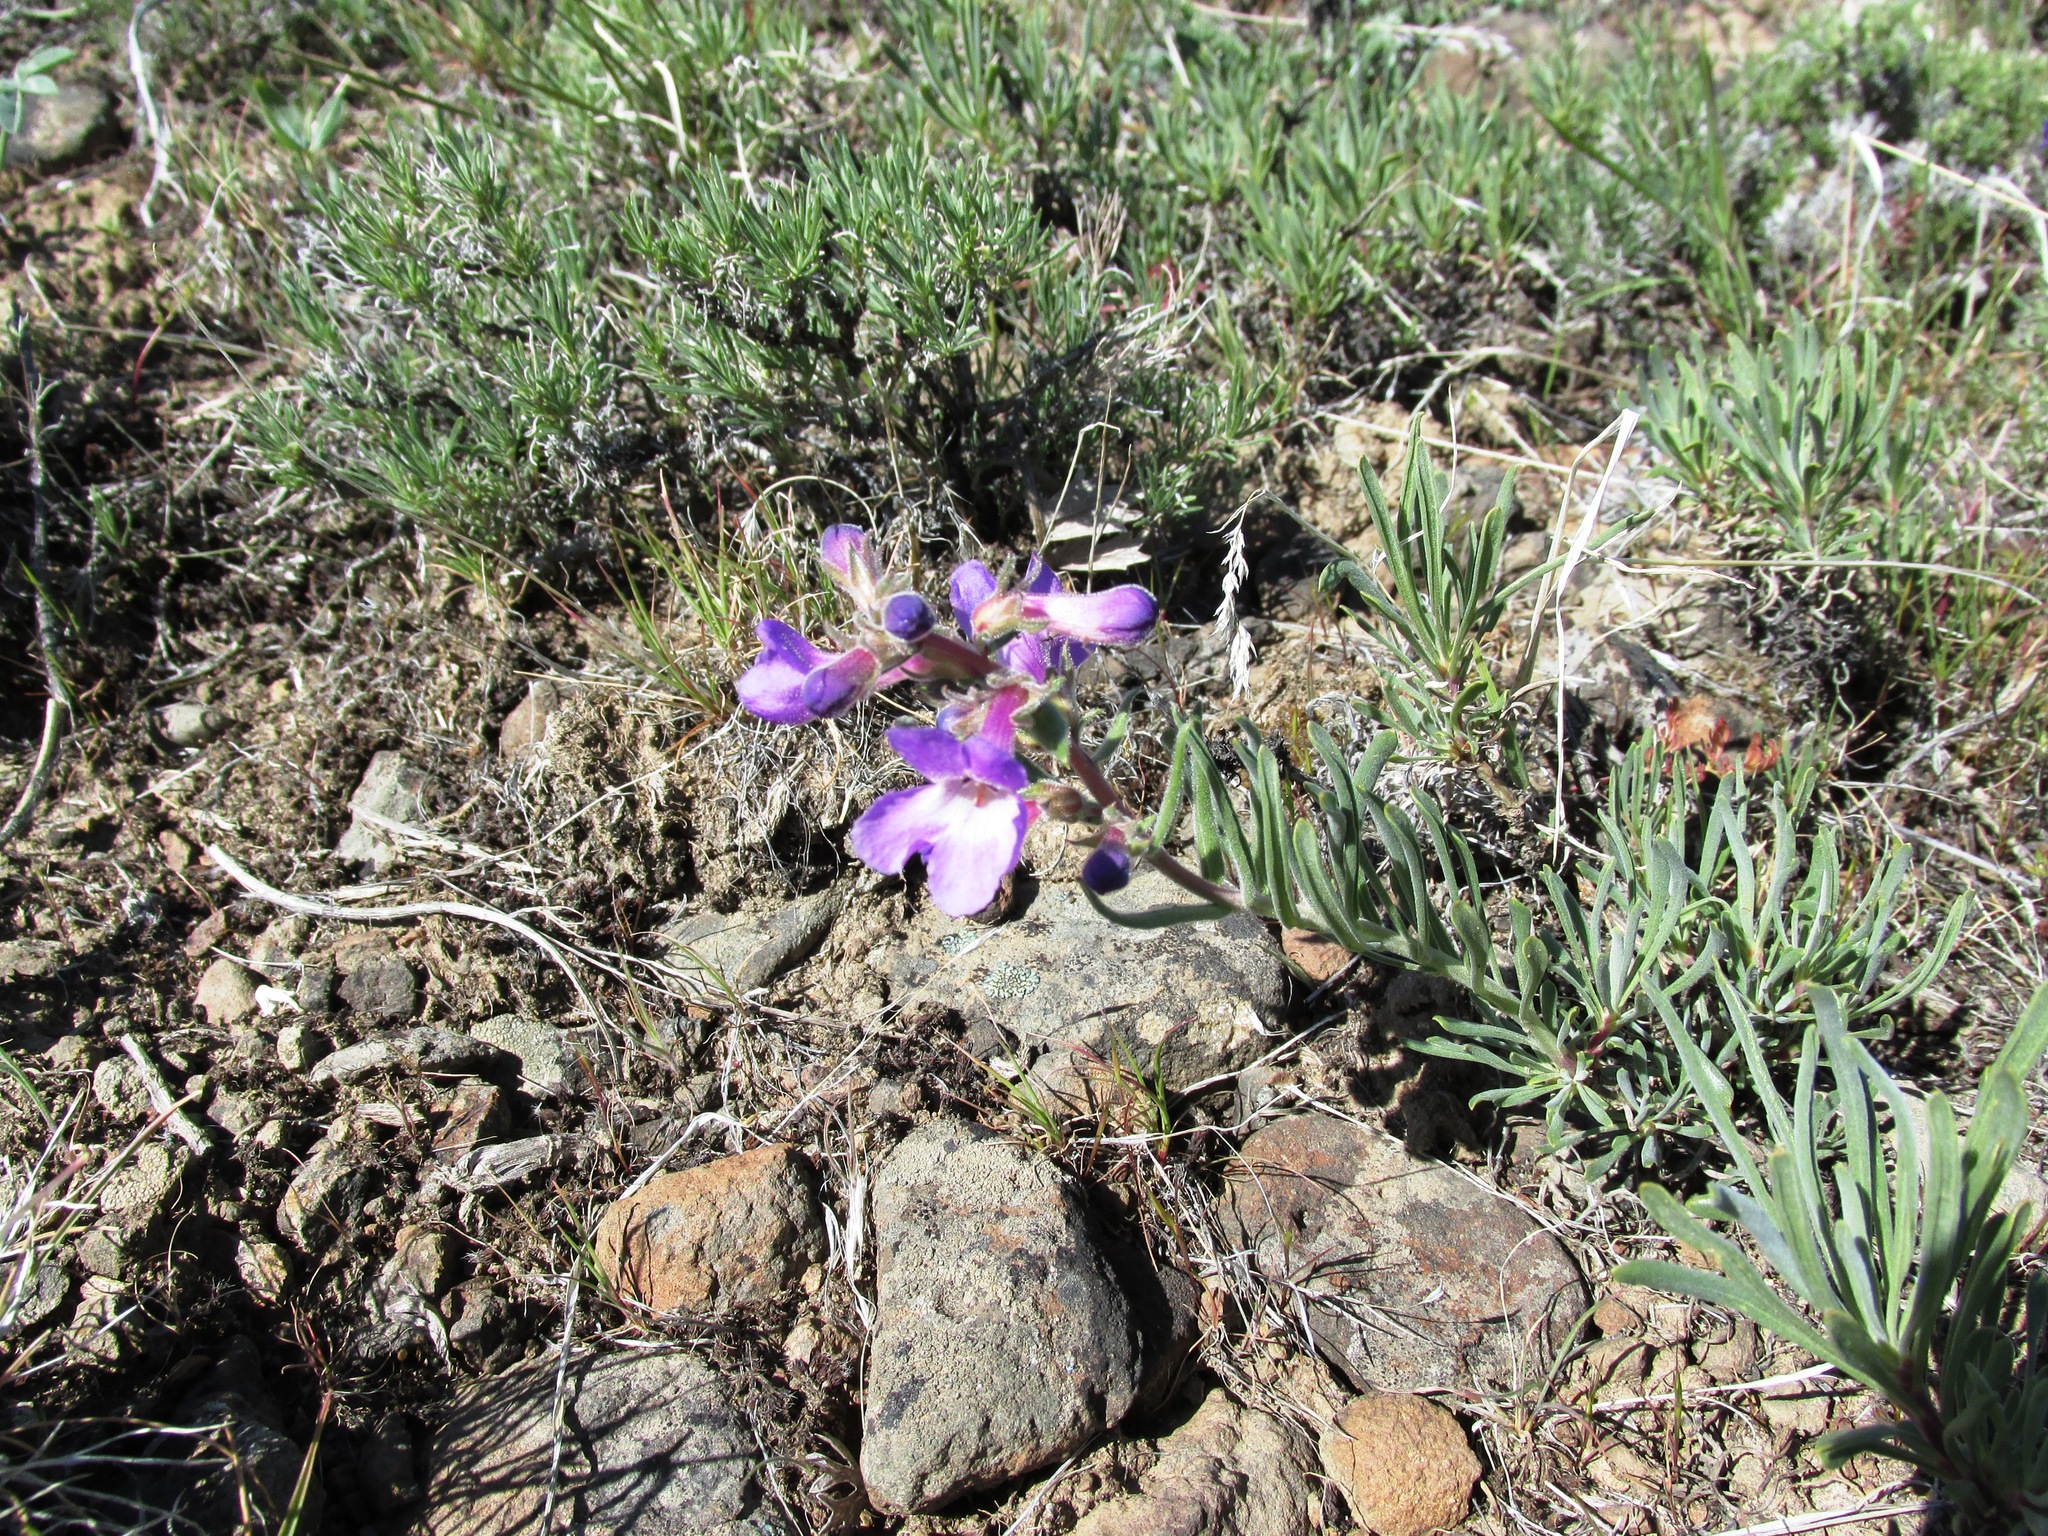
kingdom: Plantae
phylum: Tracheophyta
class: Magnoliopsida
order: Lamiales
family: Plantaginaceae
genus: Penstemon
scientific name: Penstemon gairdneri
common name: Gairdner's penstemon
